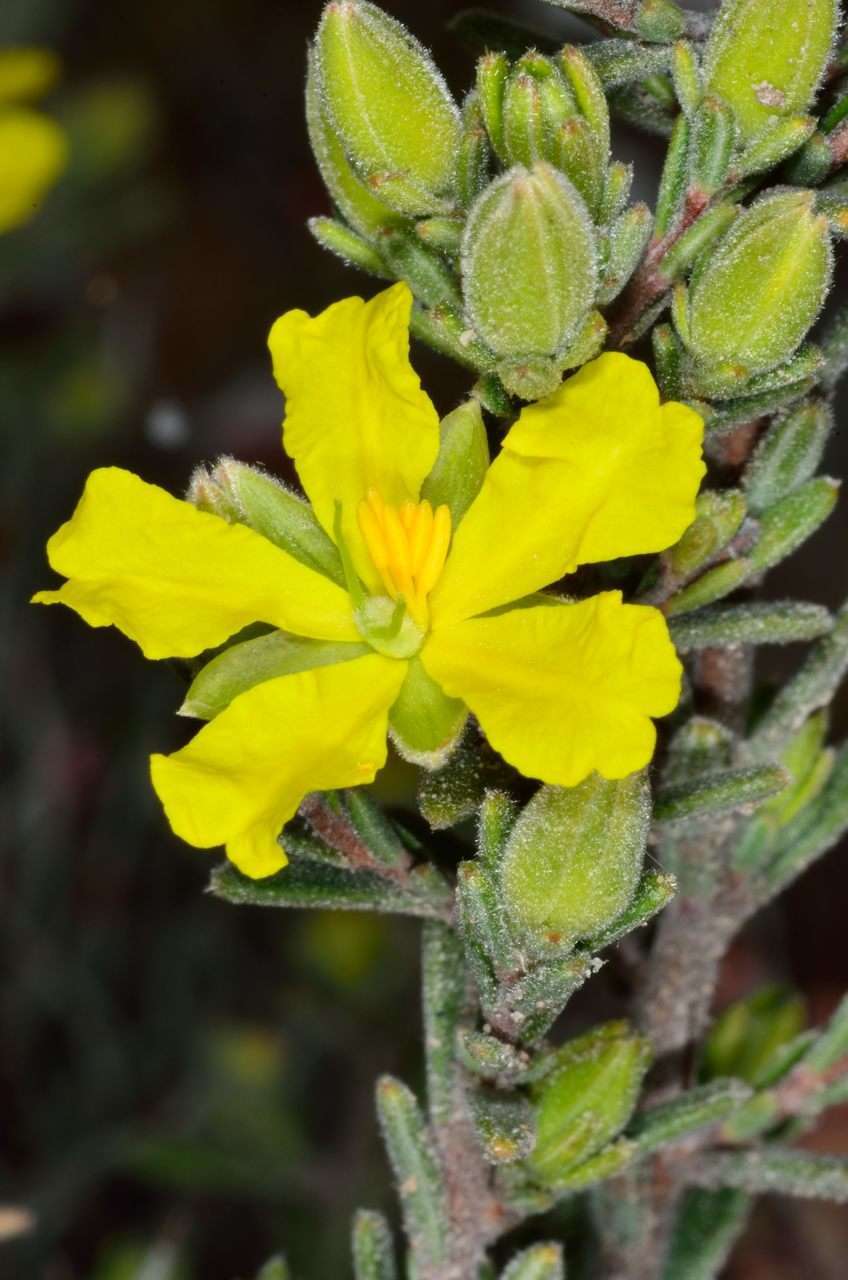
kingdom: Plantae
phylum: Tracheophyta
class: Magnoliopsida
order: Dilleniales
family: Dilleniaceae
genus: Hibbertia
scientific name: Hibbertia australis
